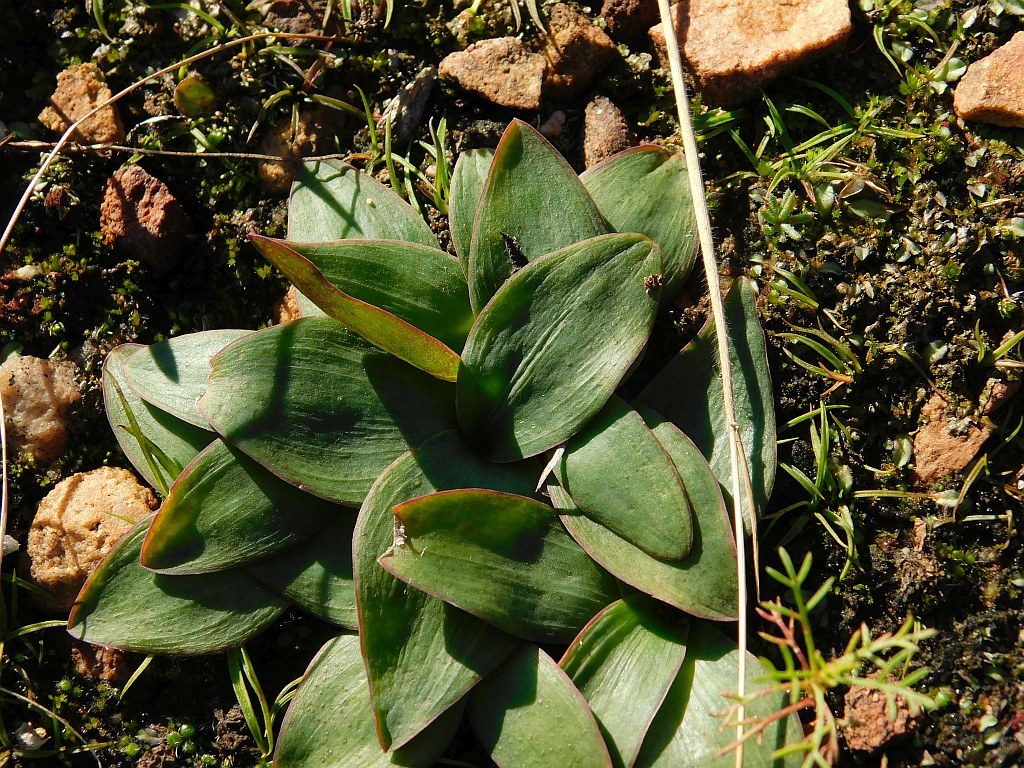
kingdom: Plantae
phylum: Tracheophyta
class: Liliopsida
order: Asparagales
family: Asparagaceae
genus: Ledebouria
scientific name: Ledebouria ovalifolia
